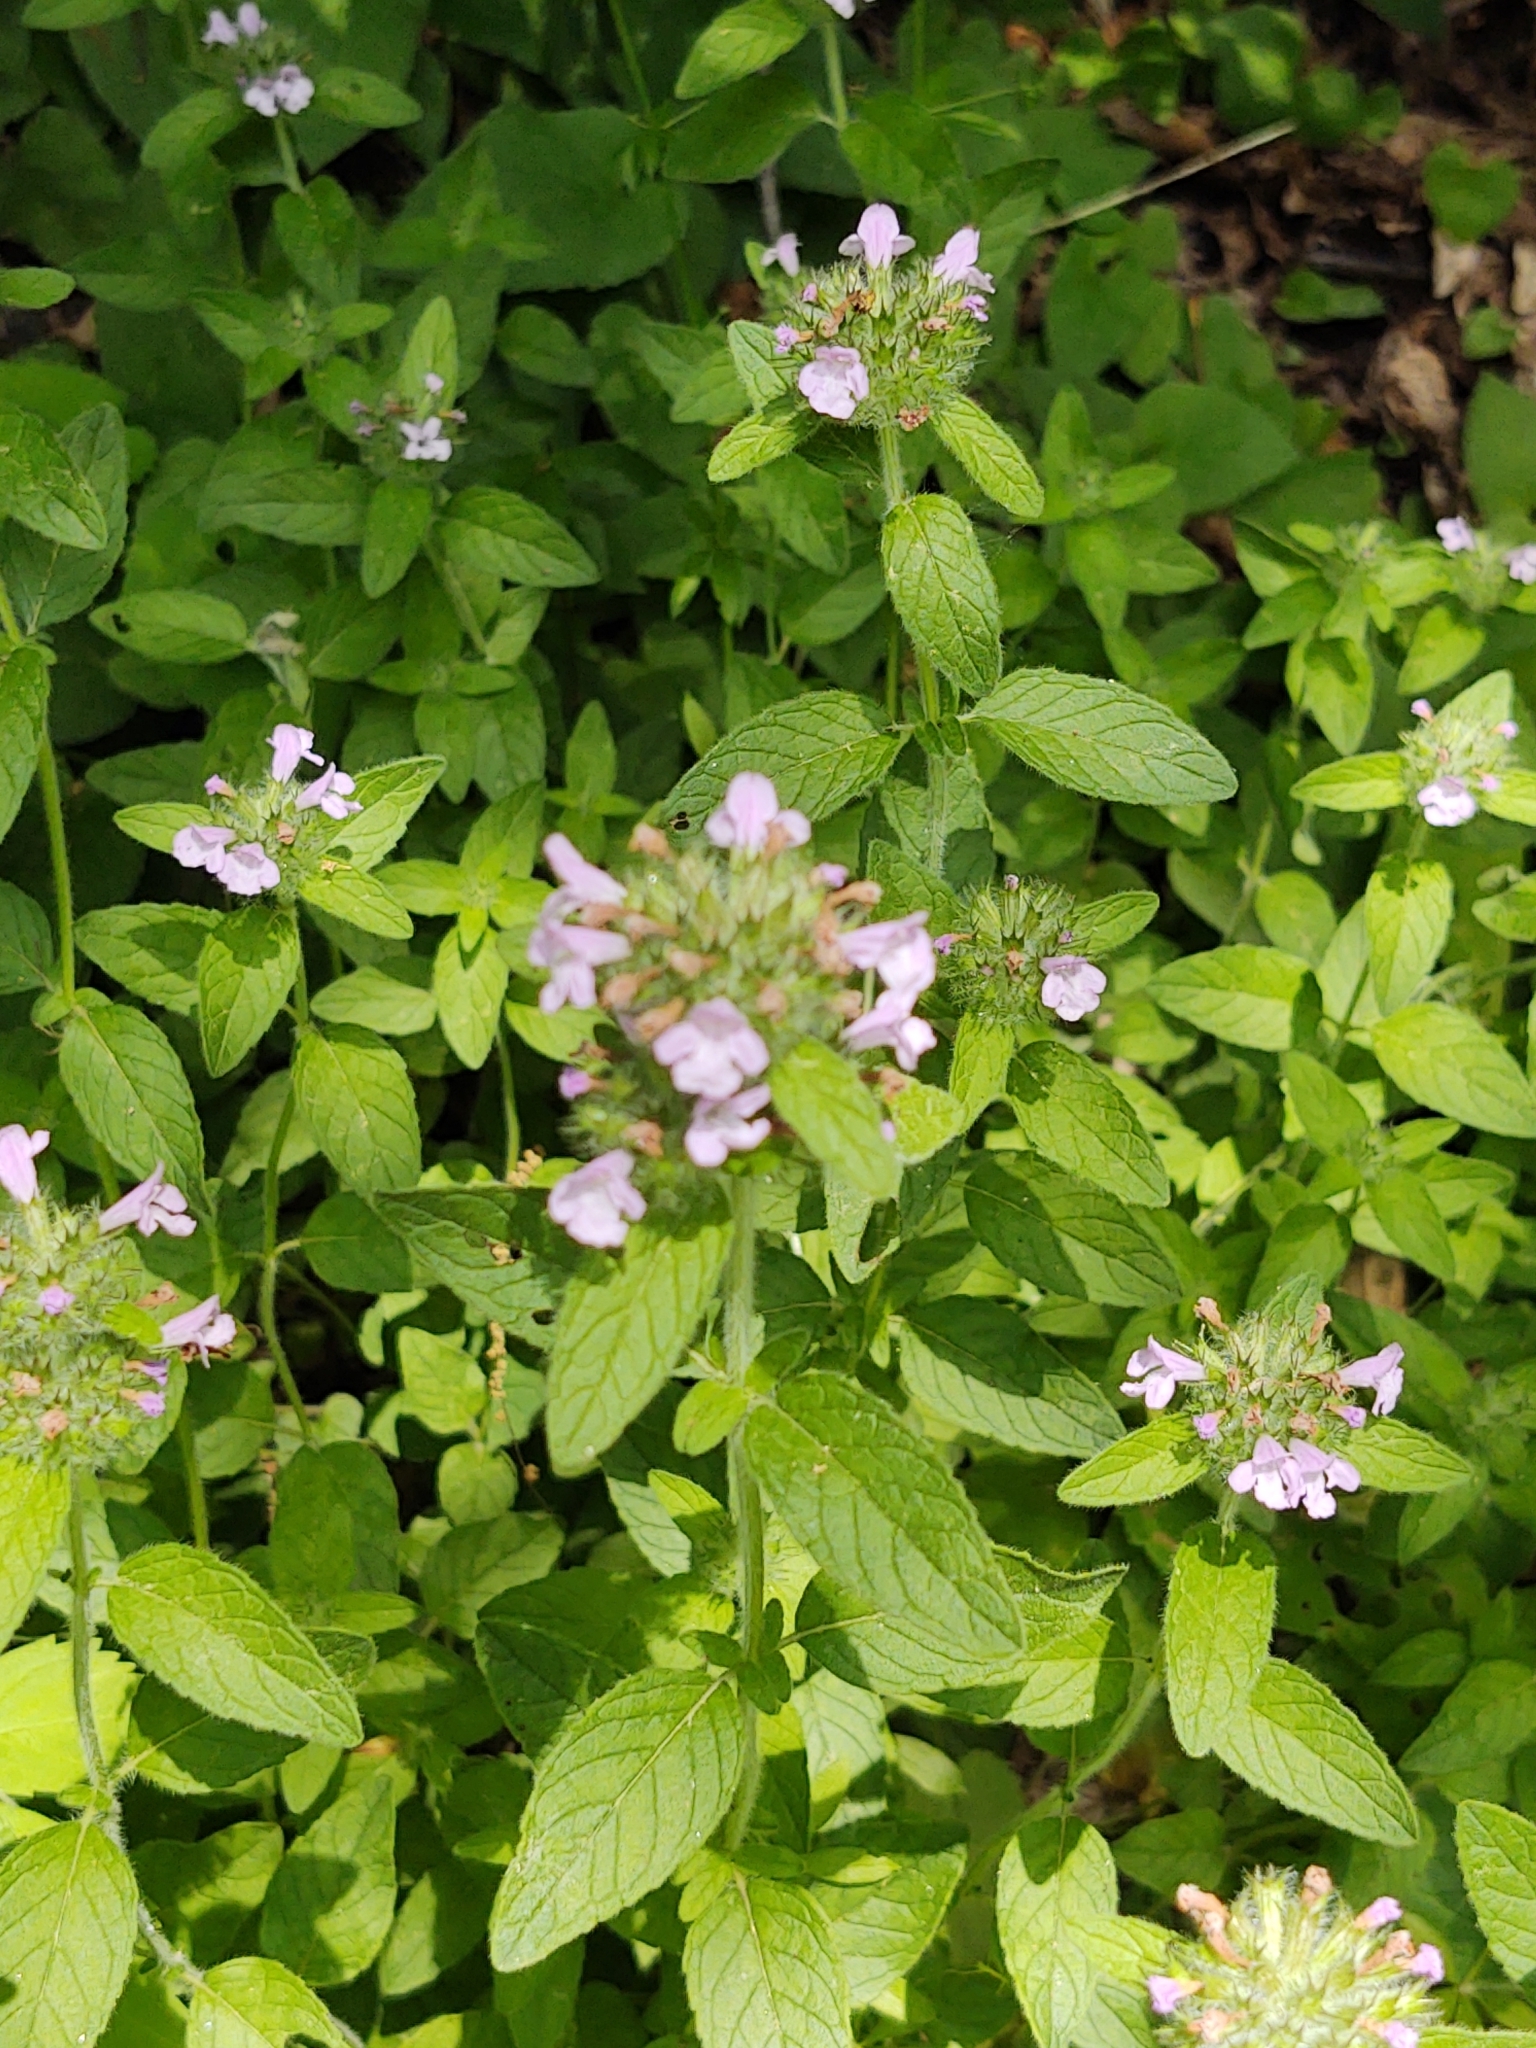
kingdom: Plantae
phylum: Tracheophyta
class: Magnoliopsida
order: Lamiales
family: Lamiaceae
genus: Clinopodium
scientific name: Clinopodium vulgare
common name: Wild basil
